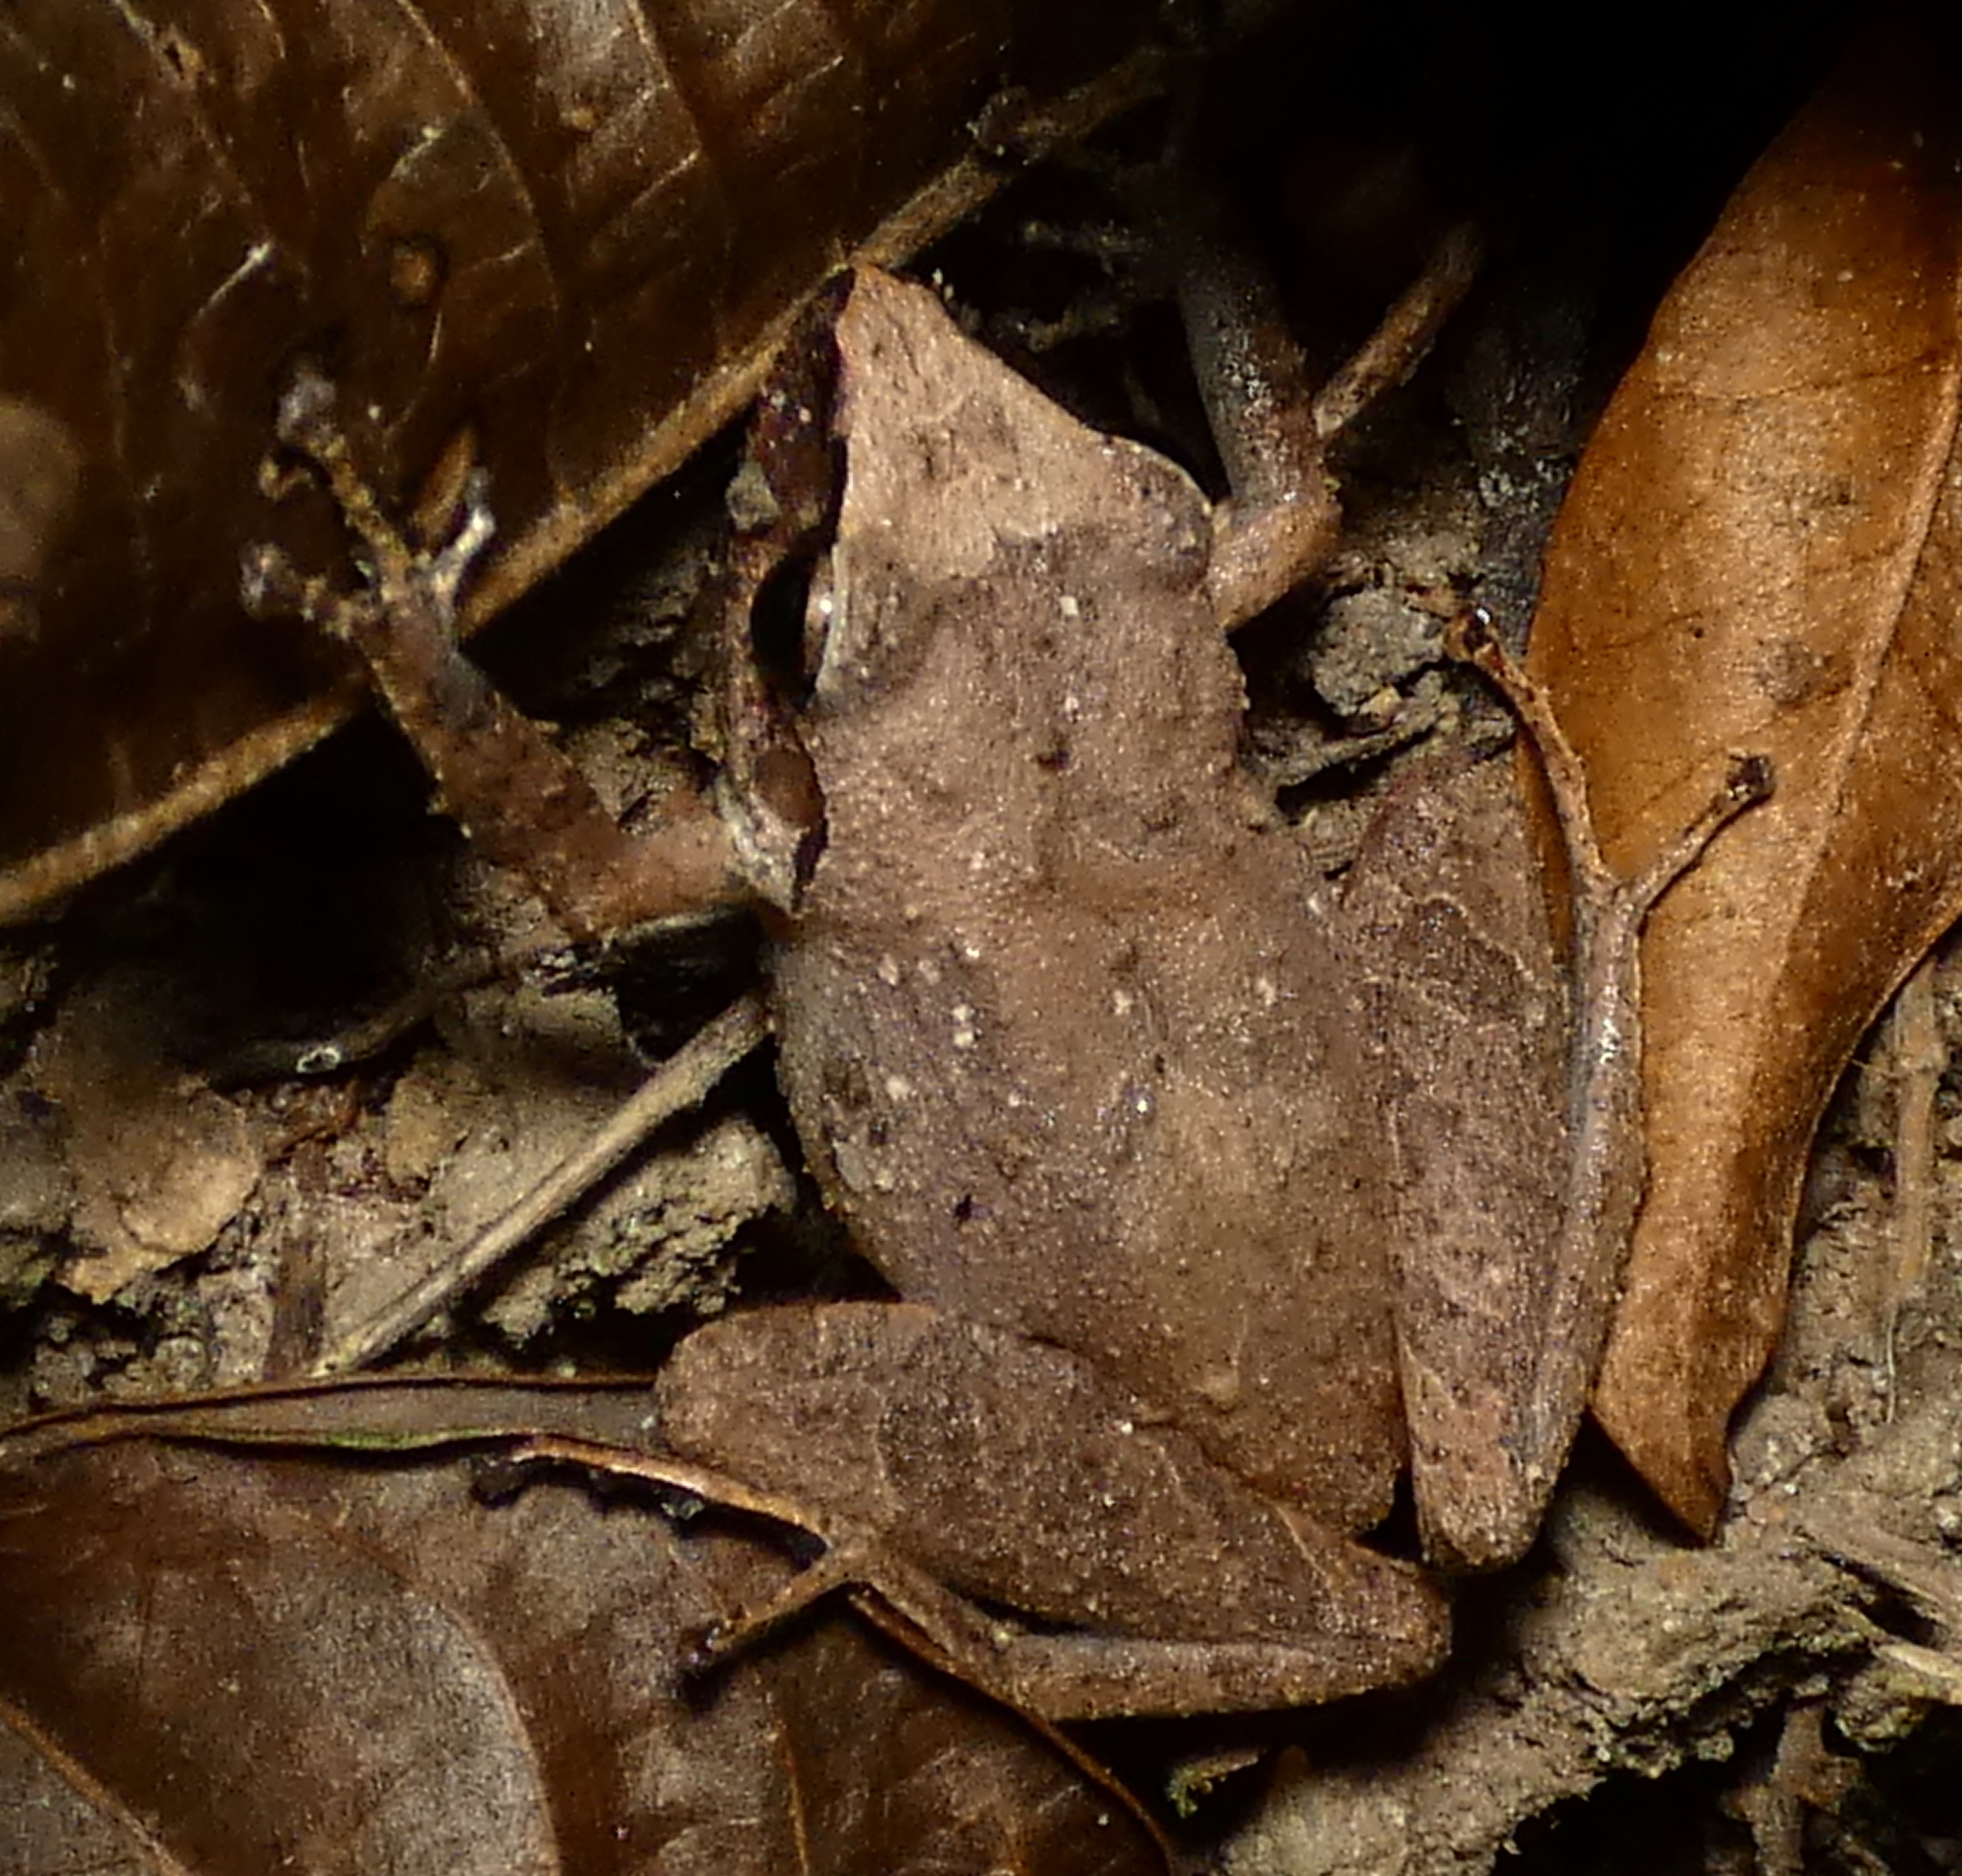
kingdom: Animalia
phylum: Chordata
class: Amphibia
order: Anura
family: Craugastoridae
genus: Pristimantis
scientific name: Pristimantis ramagii
